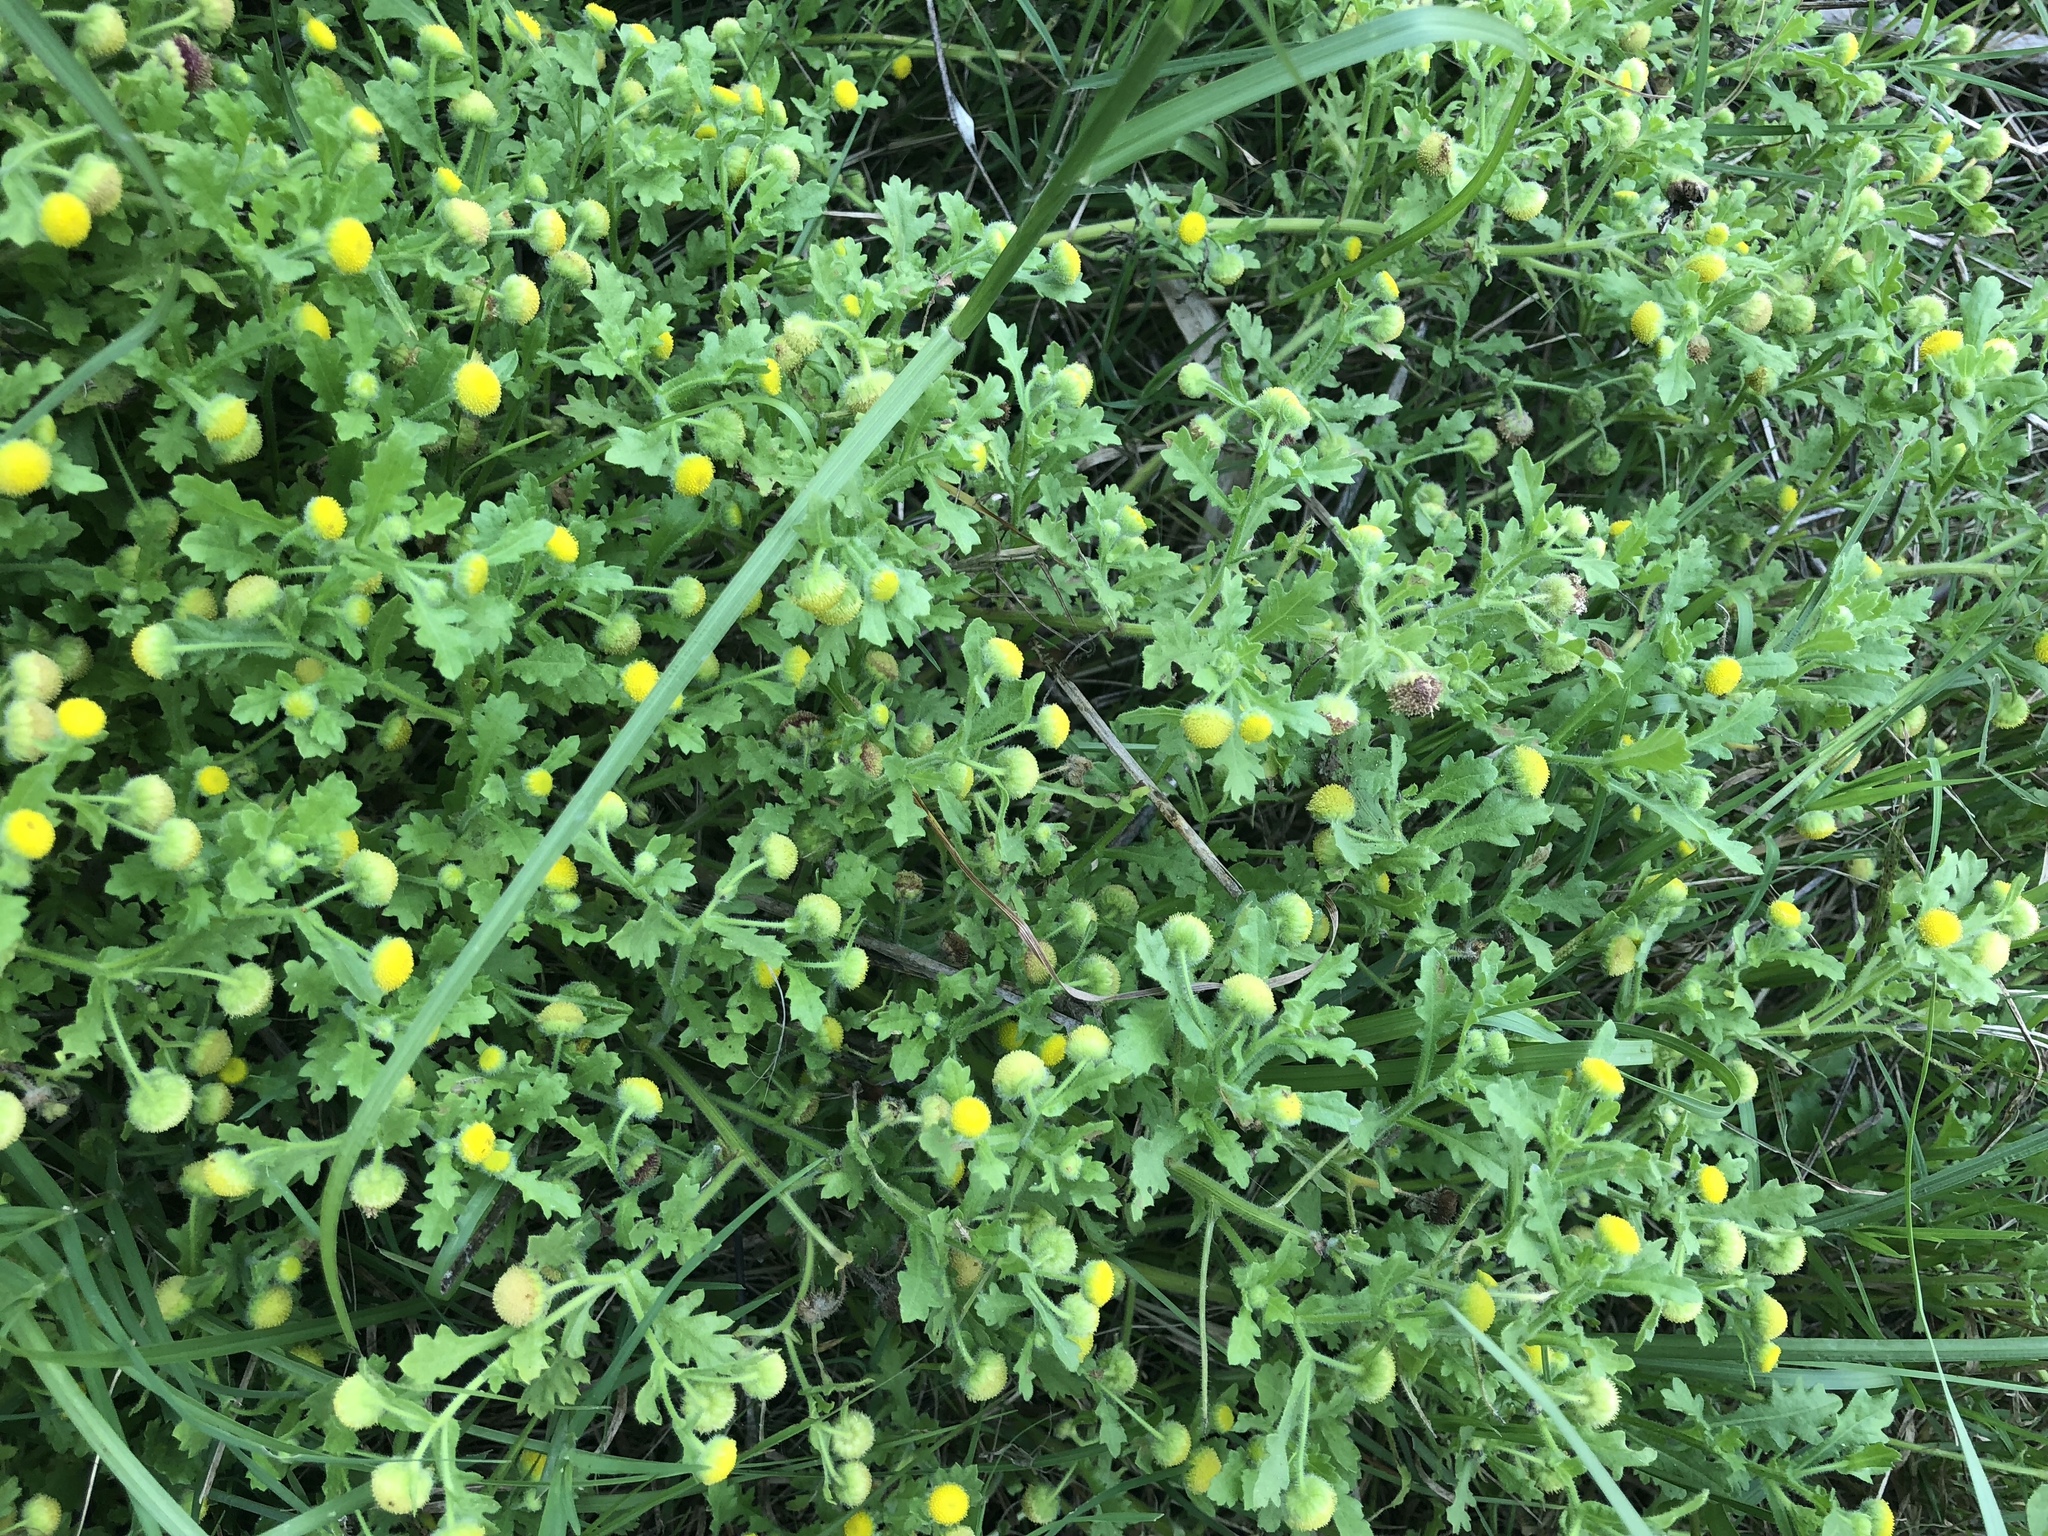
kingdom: Plantae
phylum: Tracheophyta
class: Magnoliopsida
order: Asterales
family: Asteraceae
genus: Grangea
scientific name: Grangea maderaspatana
